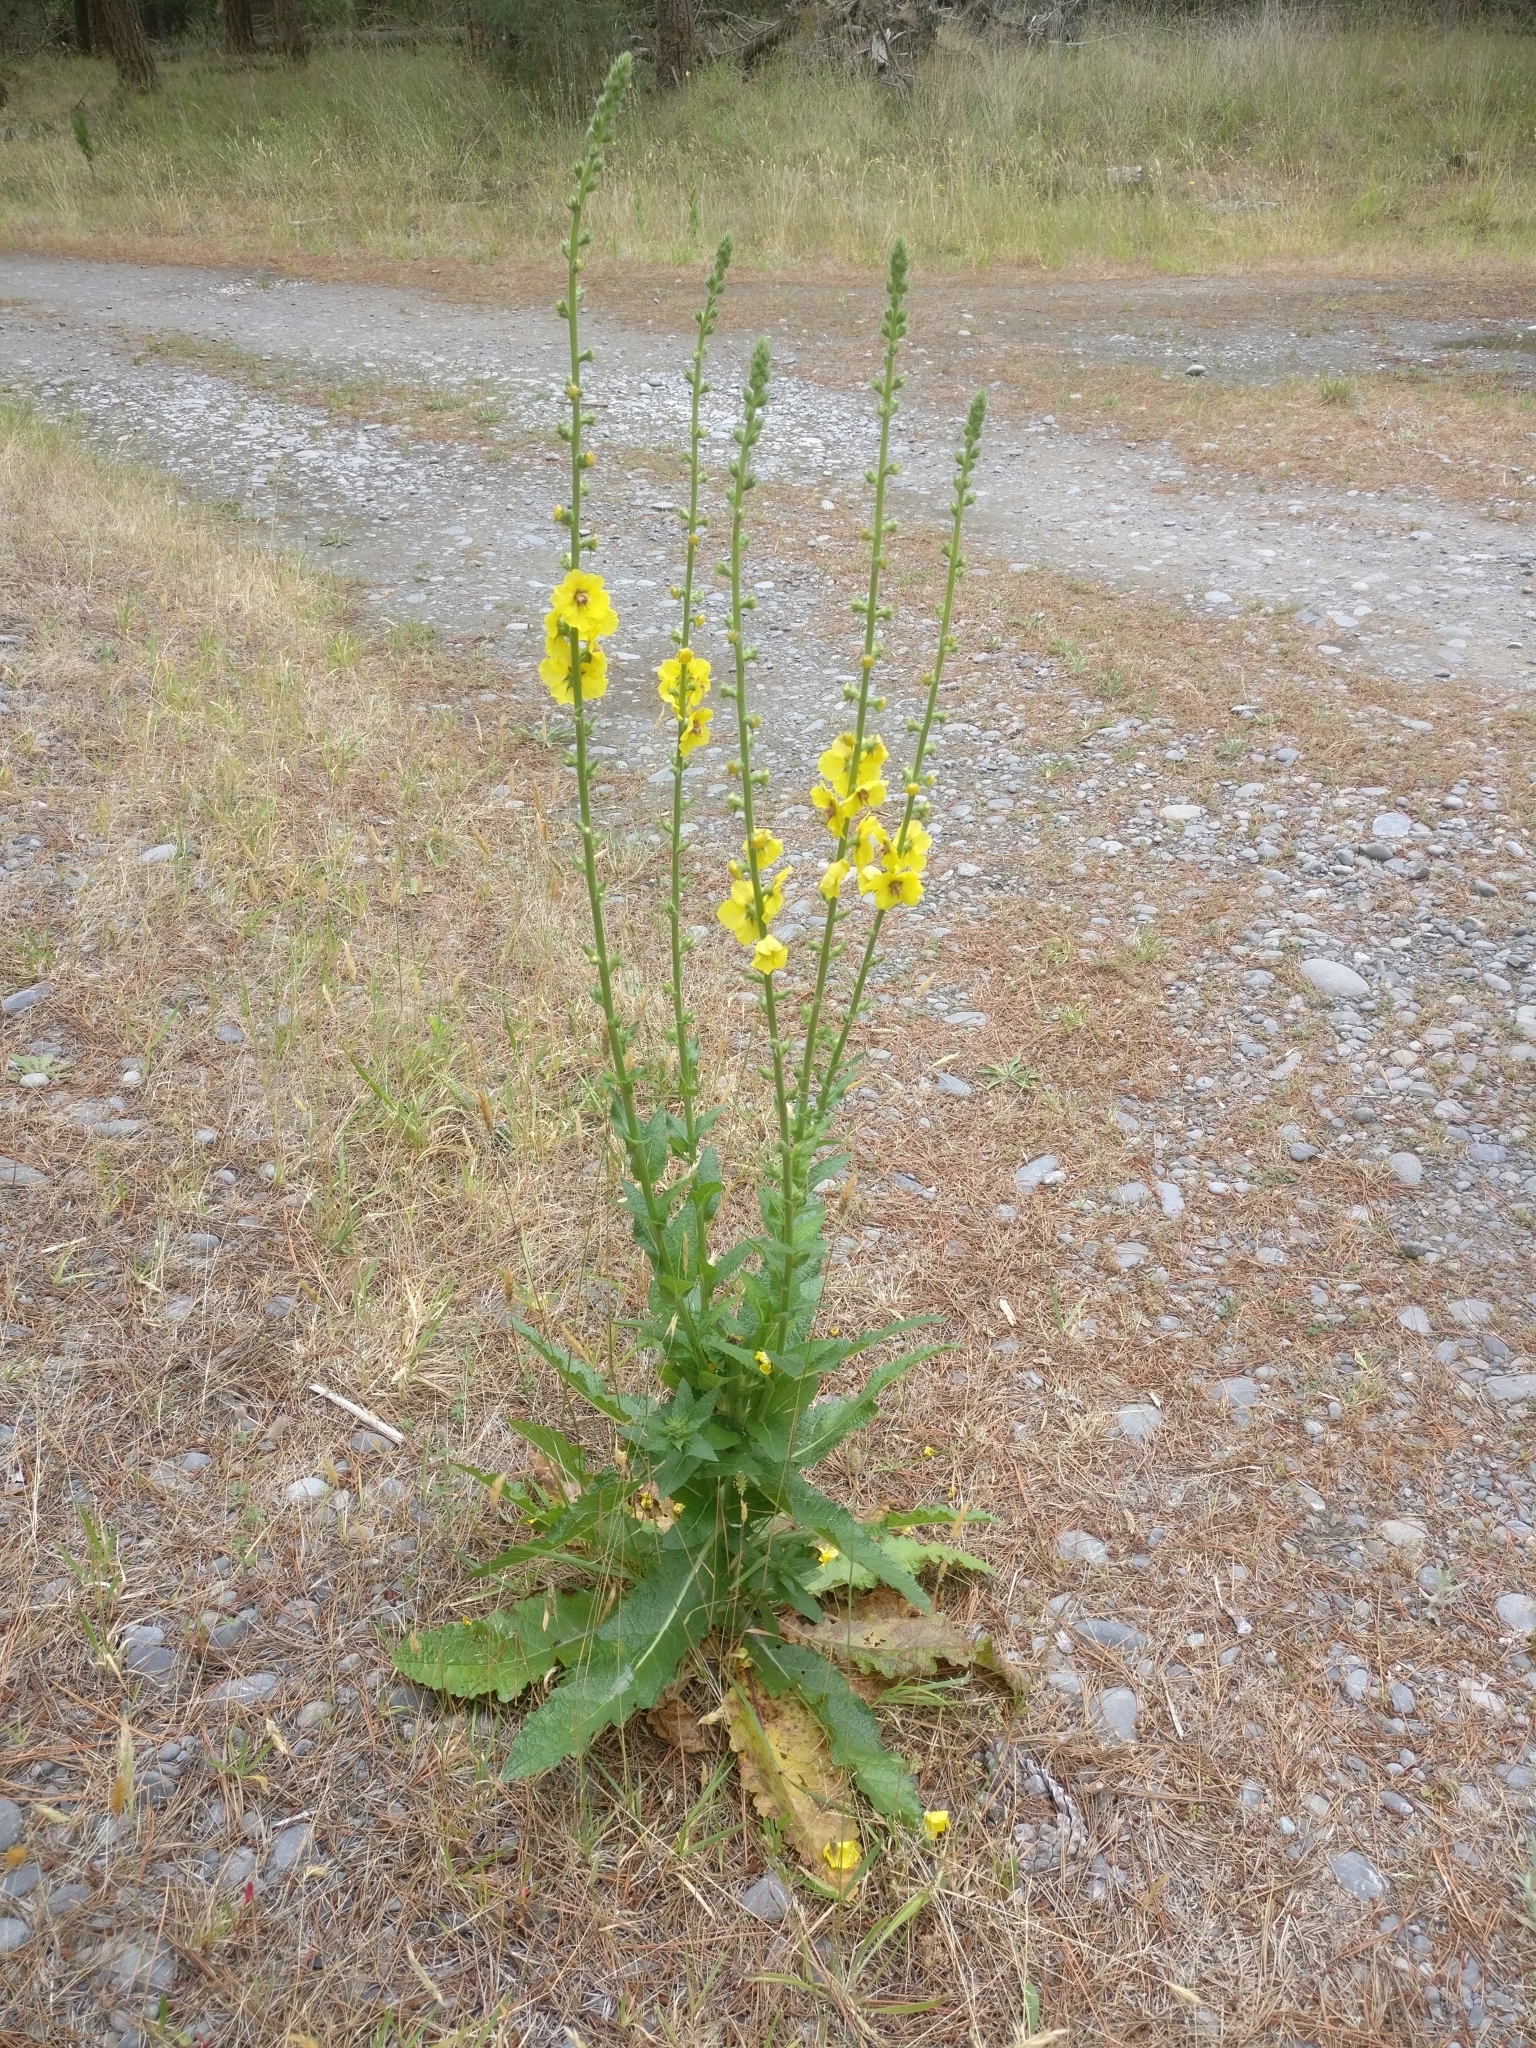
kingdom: Plantae
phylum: Tracheophyta
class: Magnoliopsida
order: Lamiales
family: Scrophulariaceae
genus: Verbascum
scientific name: Verbascum virgatum
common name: Twiggy mullein
